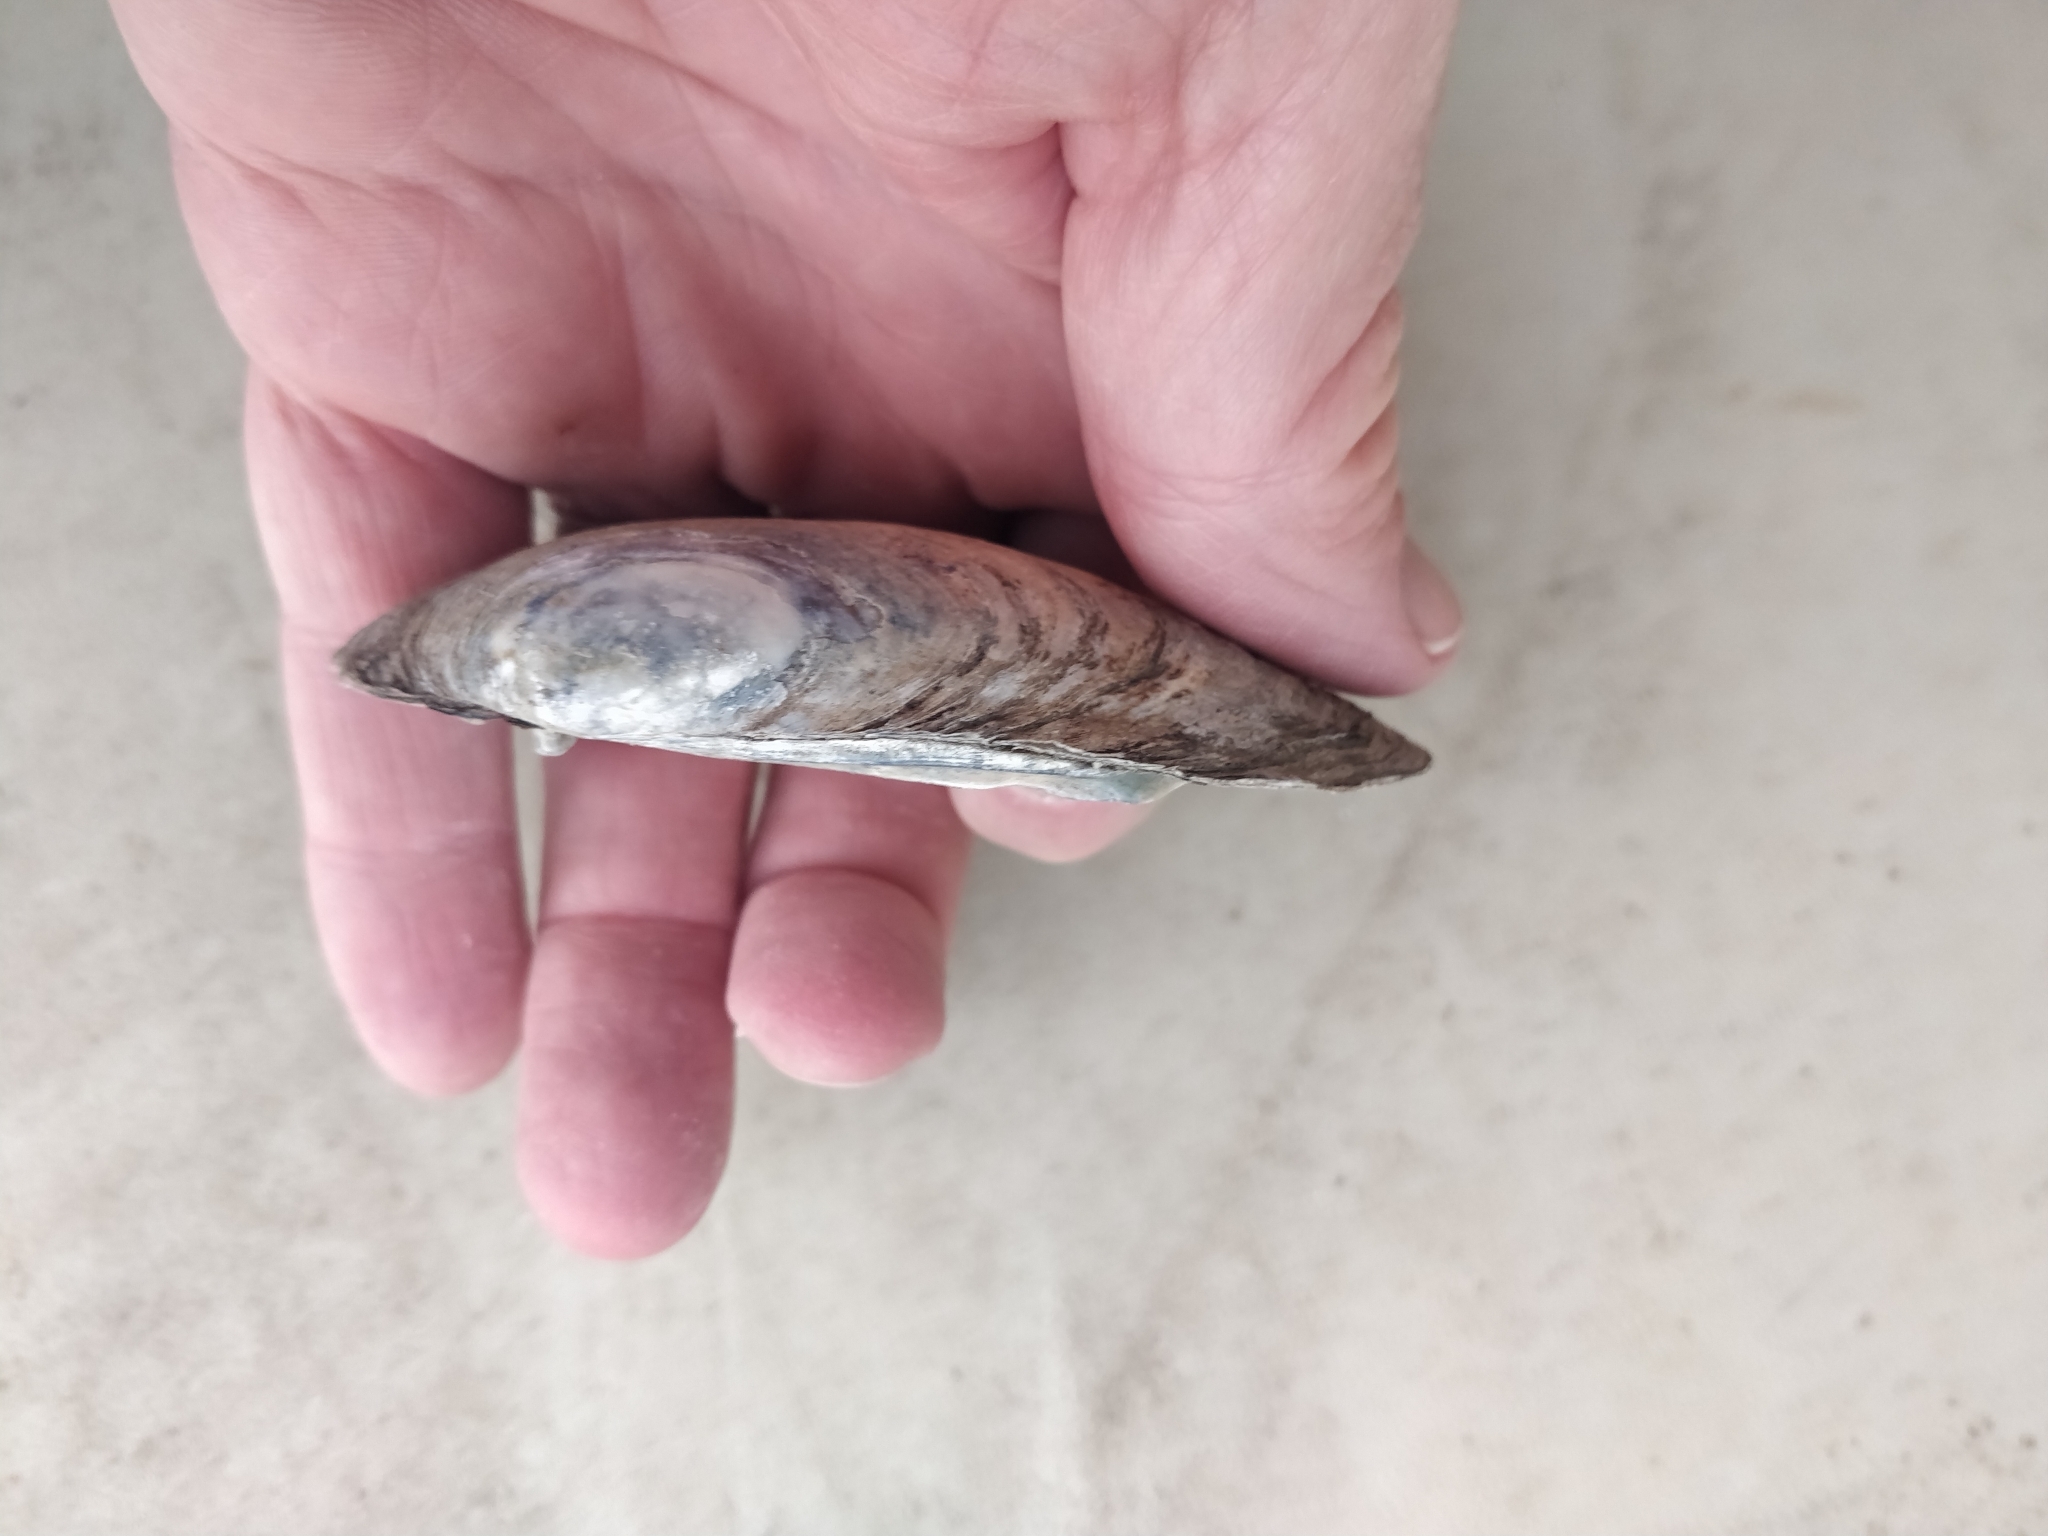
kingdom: Animalia
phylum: Mollusca
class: Bivalvia
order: Unionida
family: Unionidae
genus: Lampsilis
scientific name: Lampsilis siliquoidea
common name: Fatmucket
